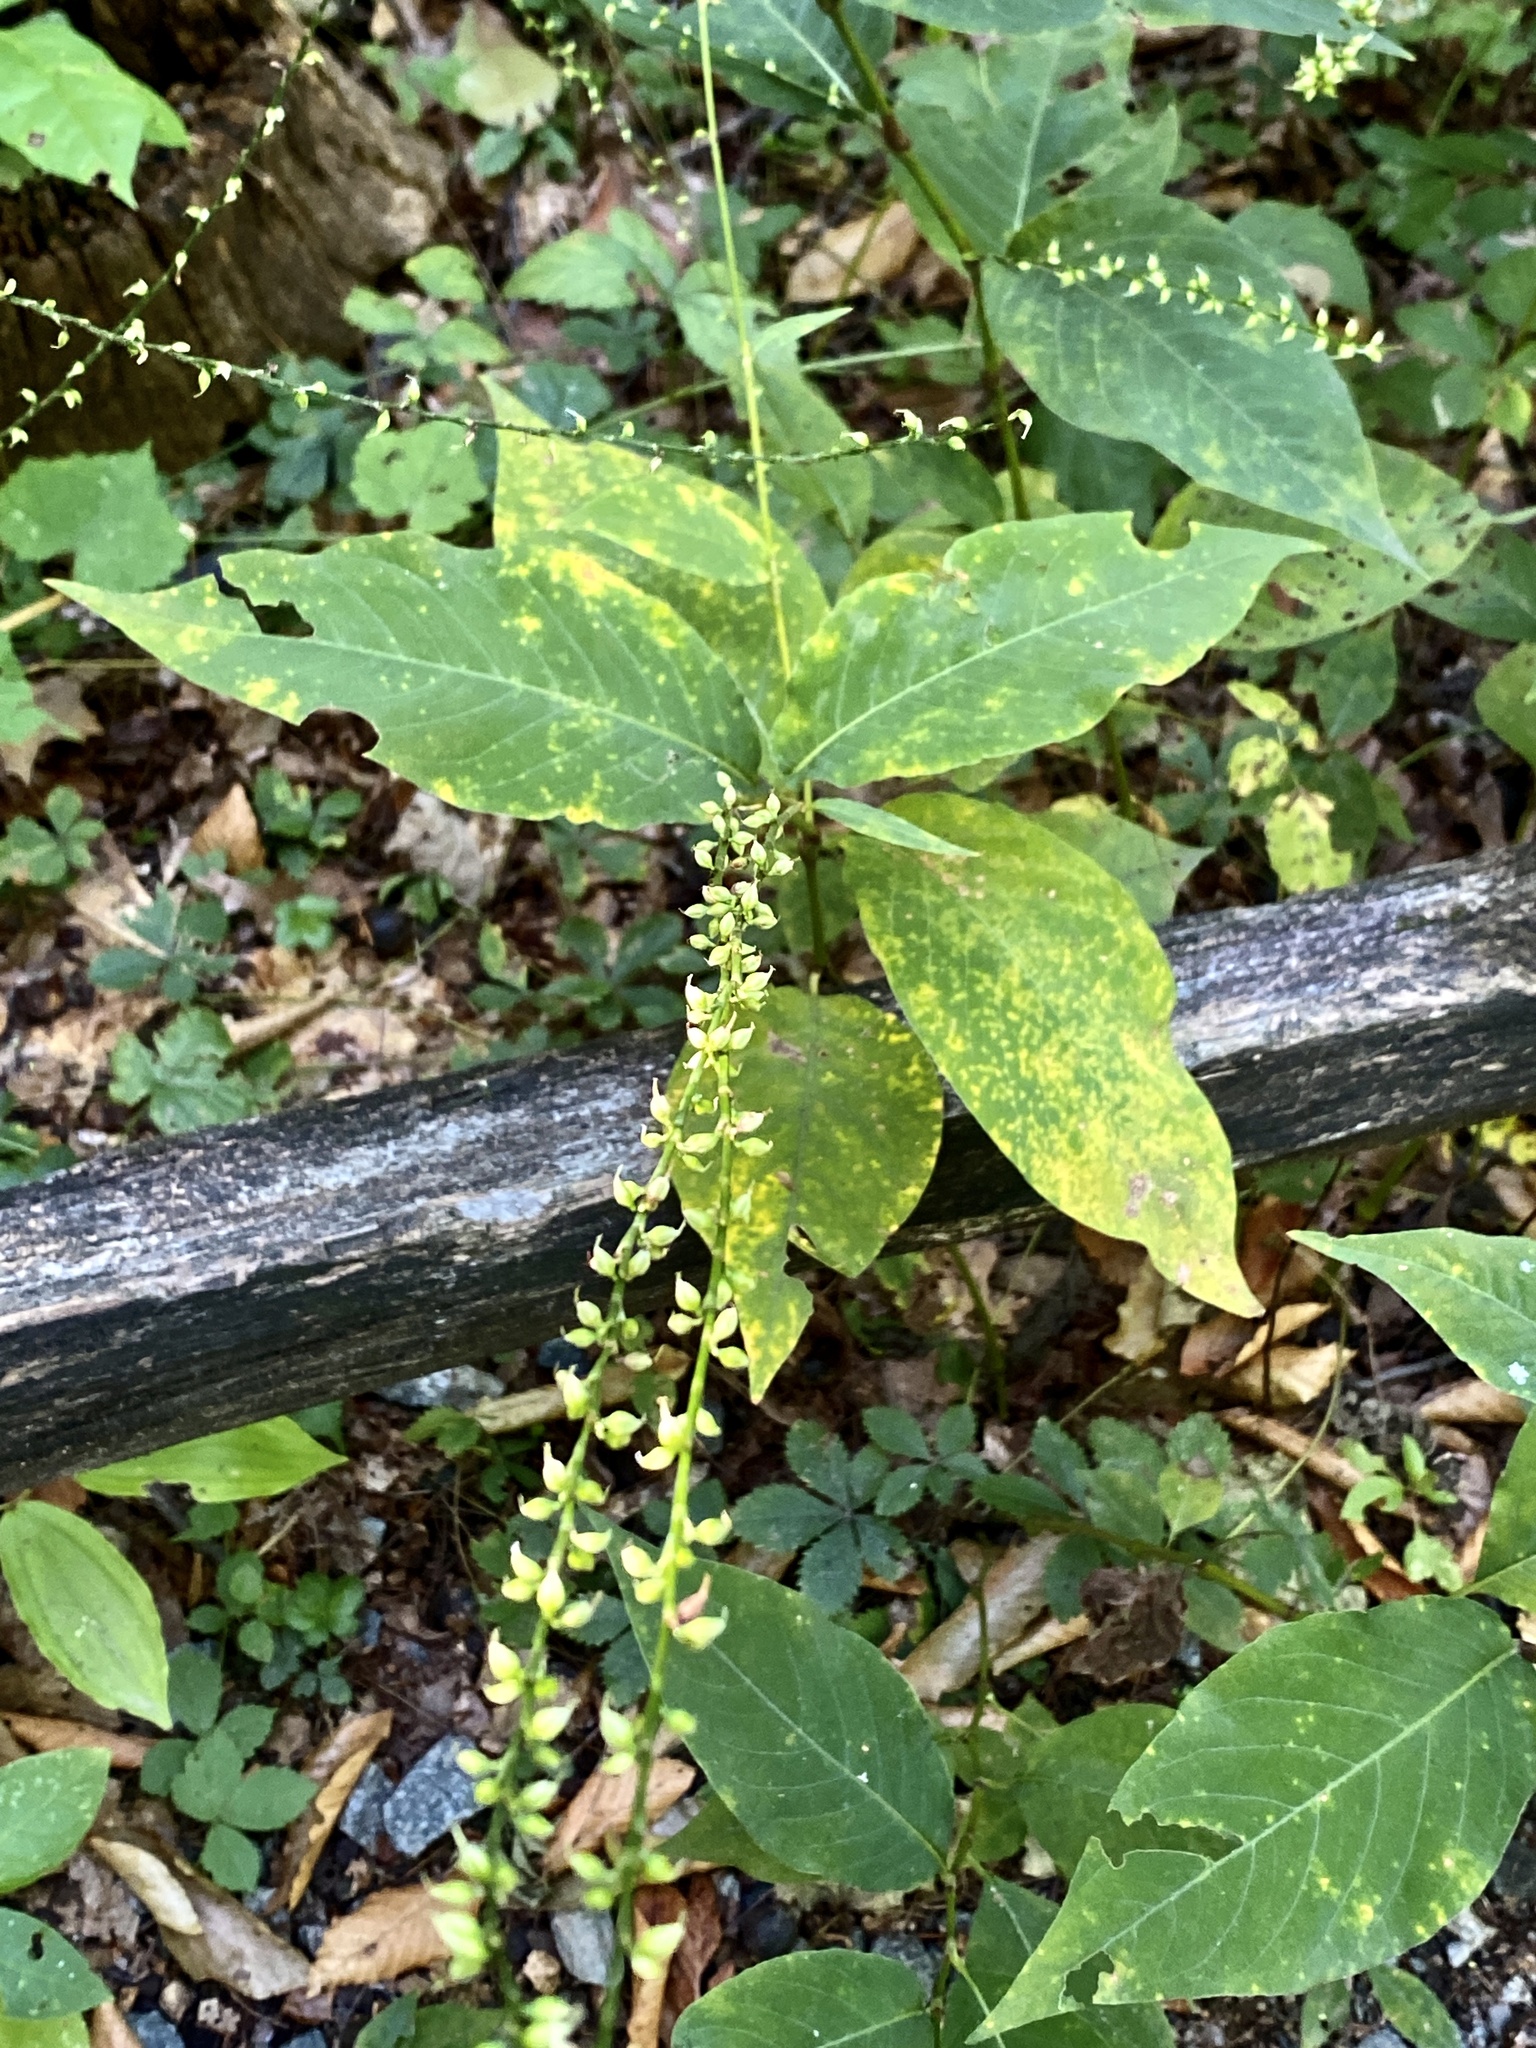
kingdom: Plantae
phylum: Tracheophyta
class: Magnoliopsida
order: Caryophyllales
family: Polygonaceae
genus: Persicaria
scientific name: Persicaria virginiana
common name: Jumpseed
